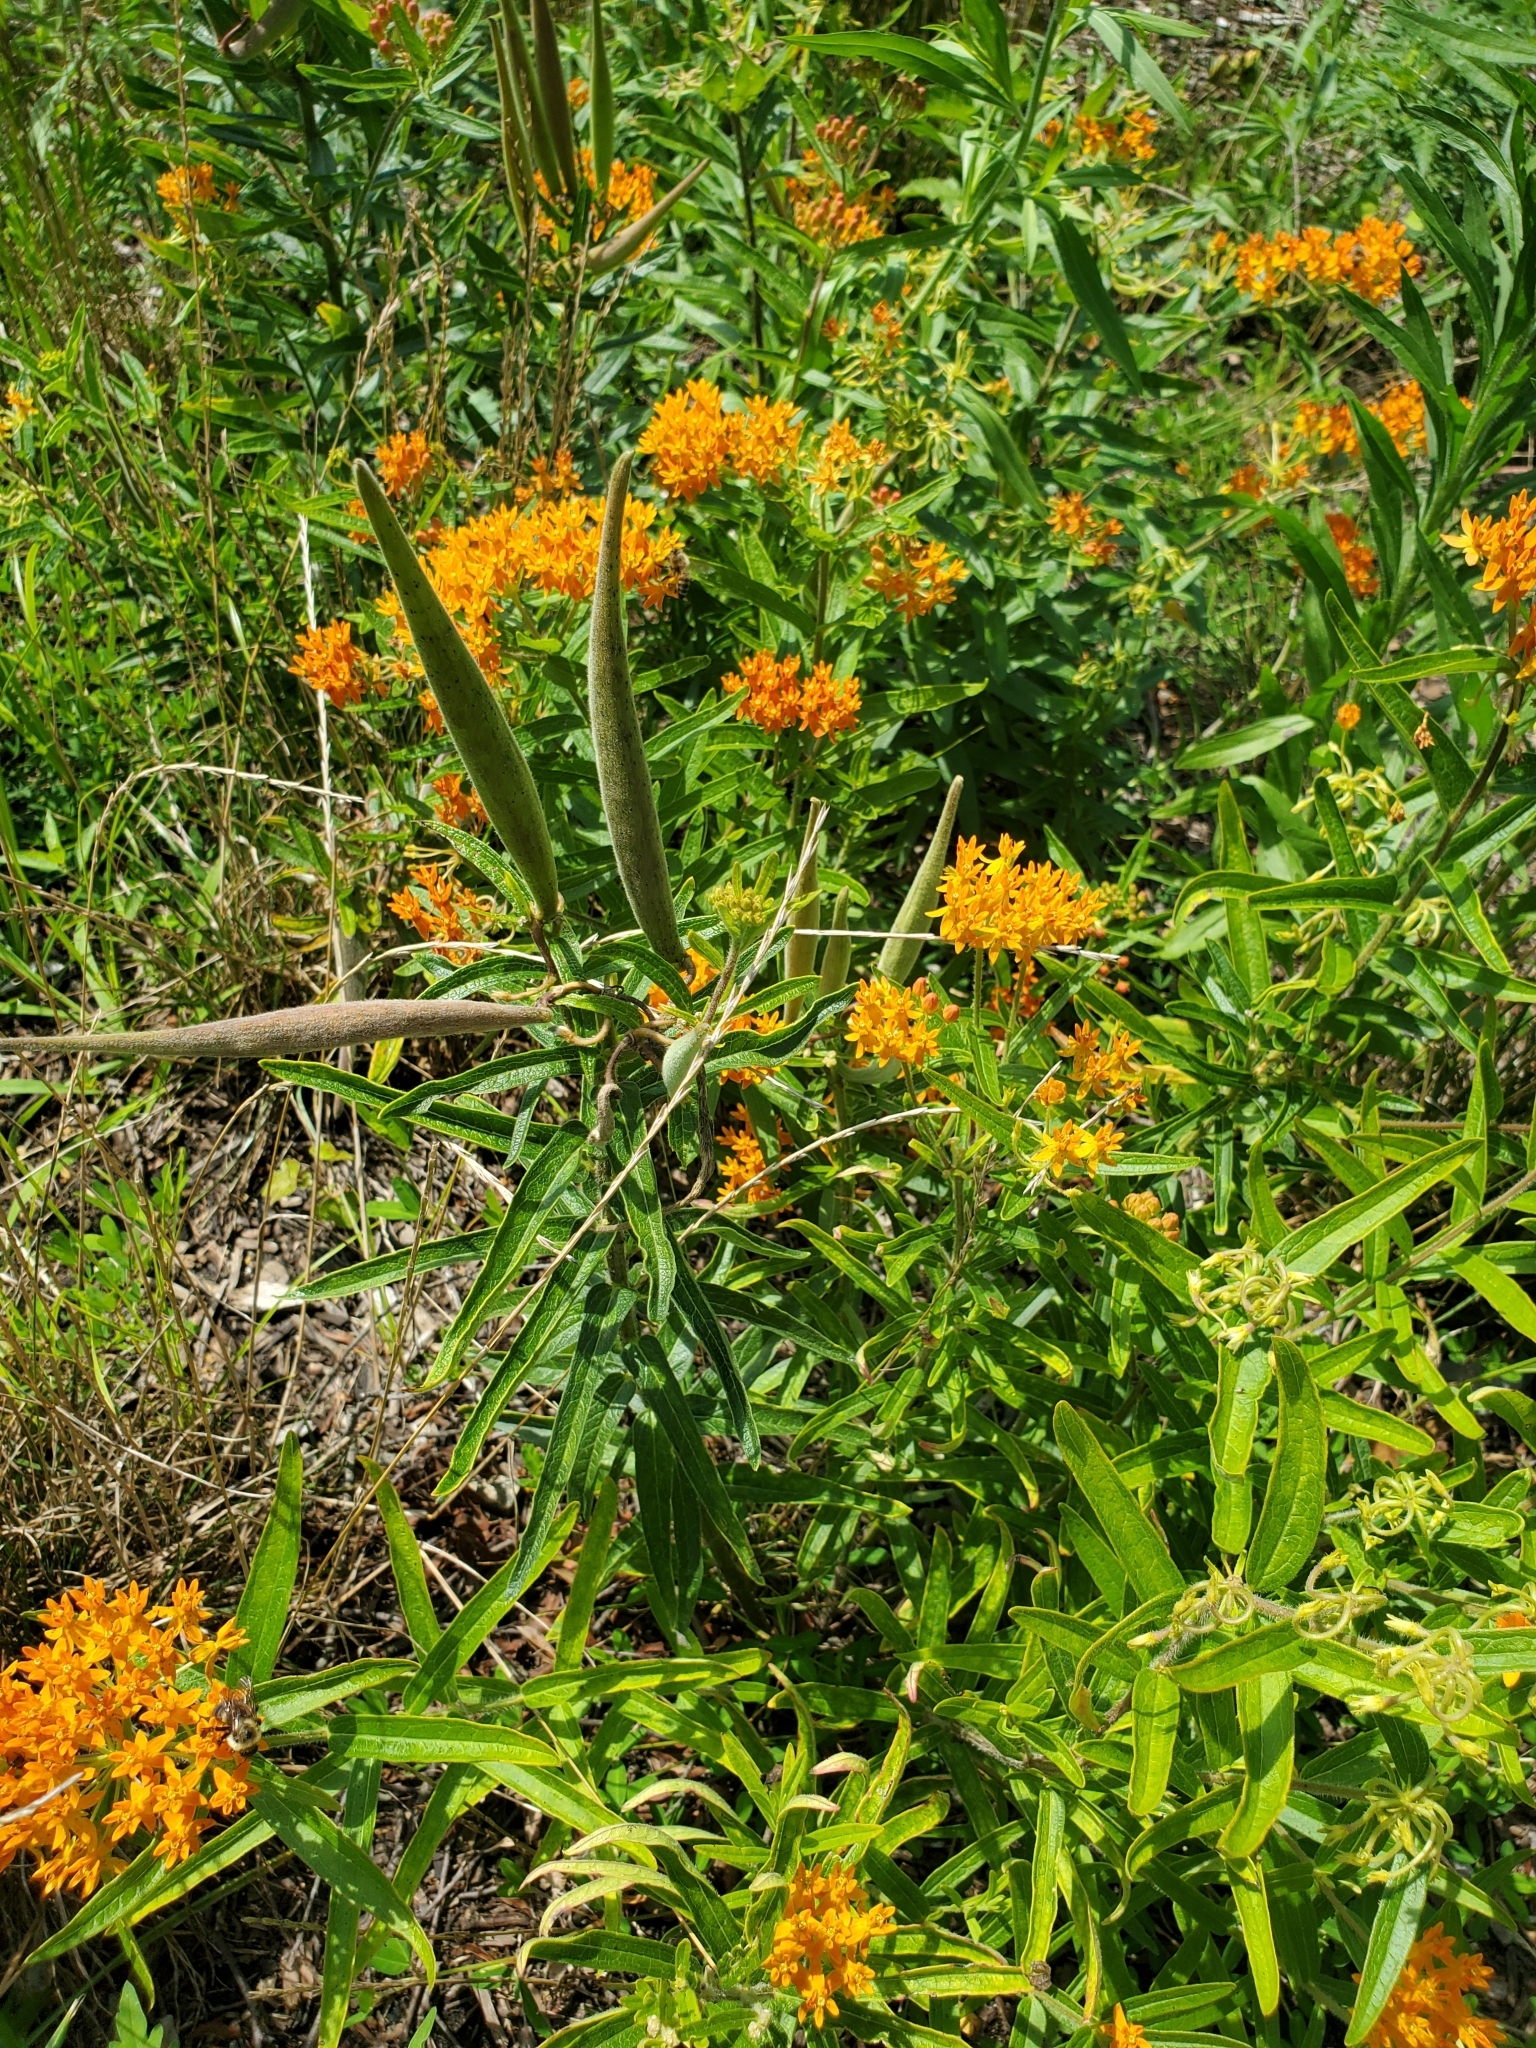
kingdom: Plantae
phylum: Tracheophyta
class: Magnoliopsida
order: Gentianales
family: Apocynaceae
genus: Asclepias
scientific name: Asclepias tuberosa
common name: Butterfly milkweed
